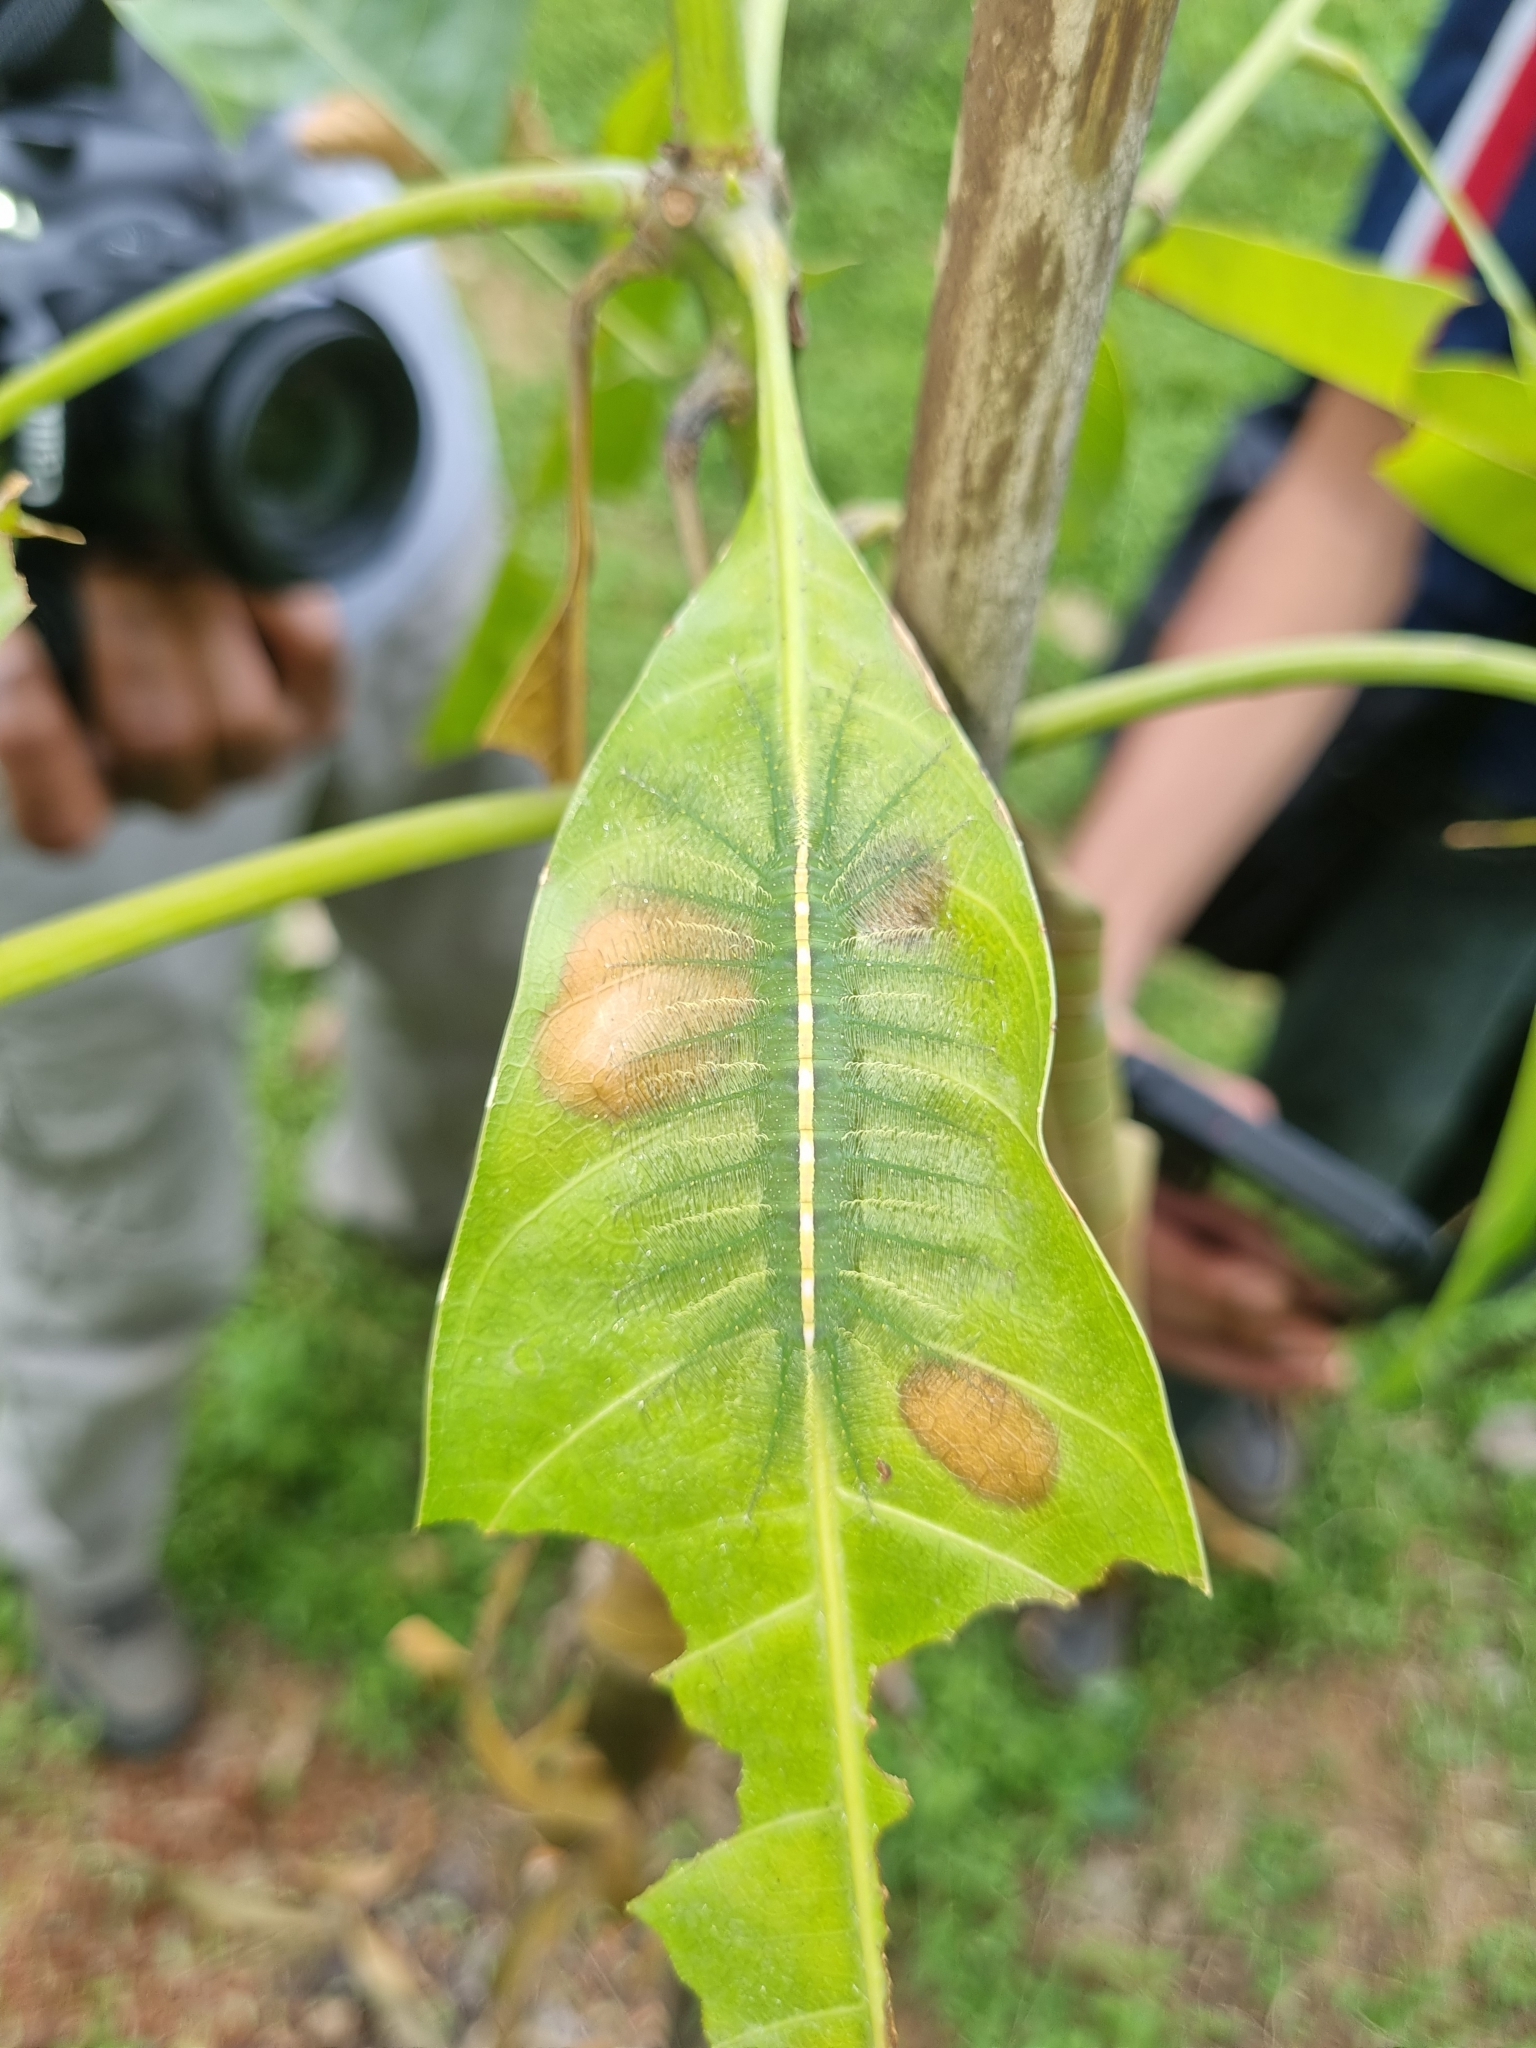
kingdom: Animalia
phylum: Arthropoda
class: Insecta
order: Lepidoptera
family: Nymphalidae
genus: Euthalia
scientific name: Euthalia aconthea
